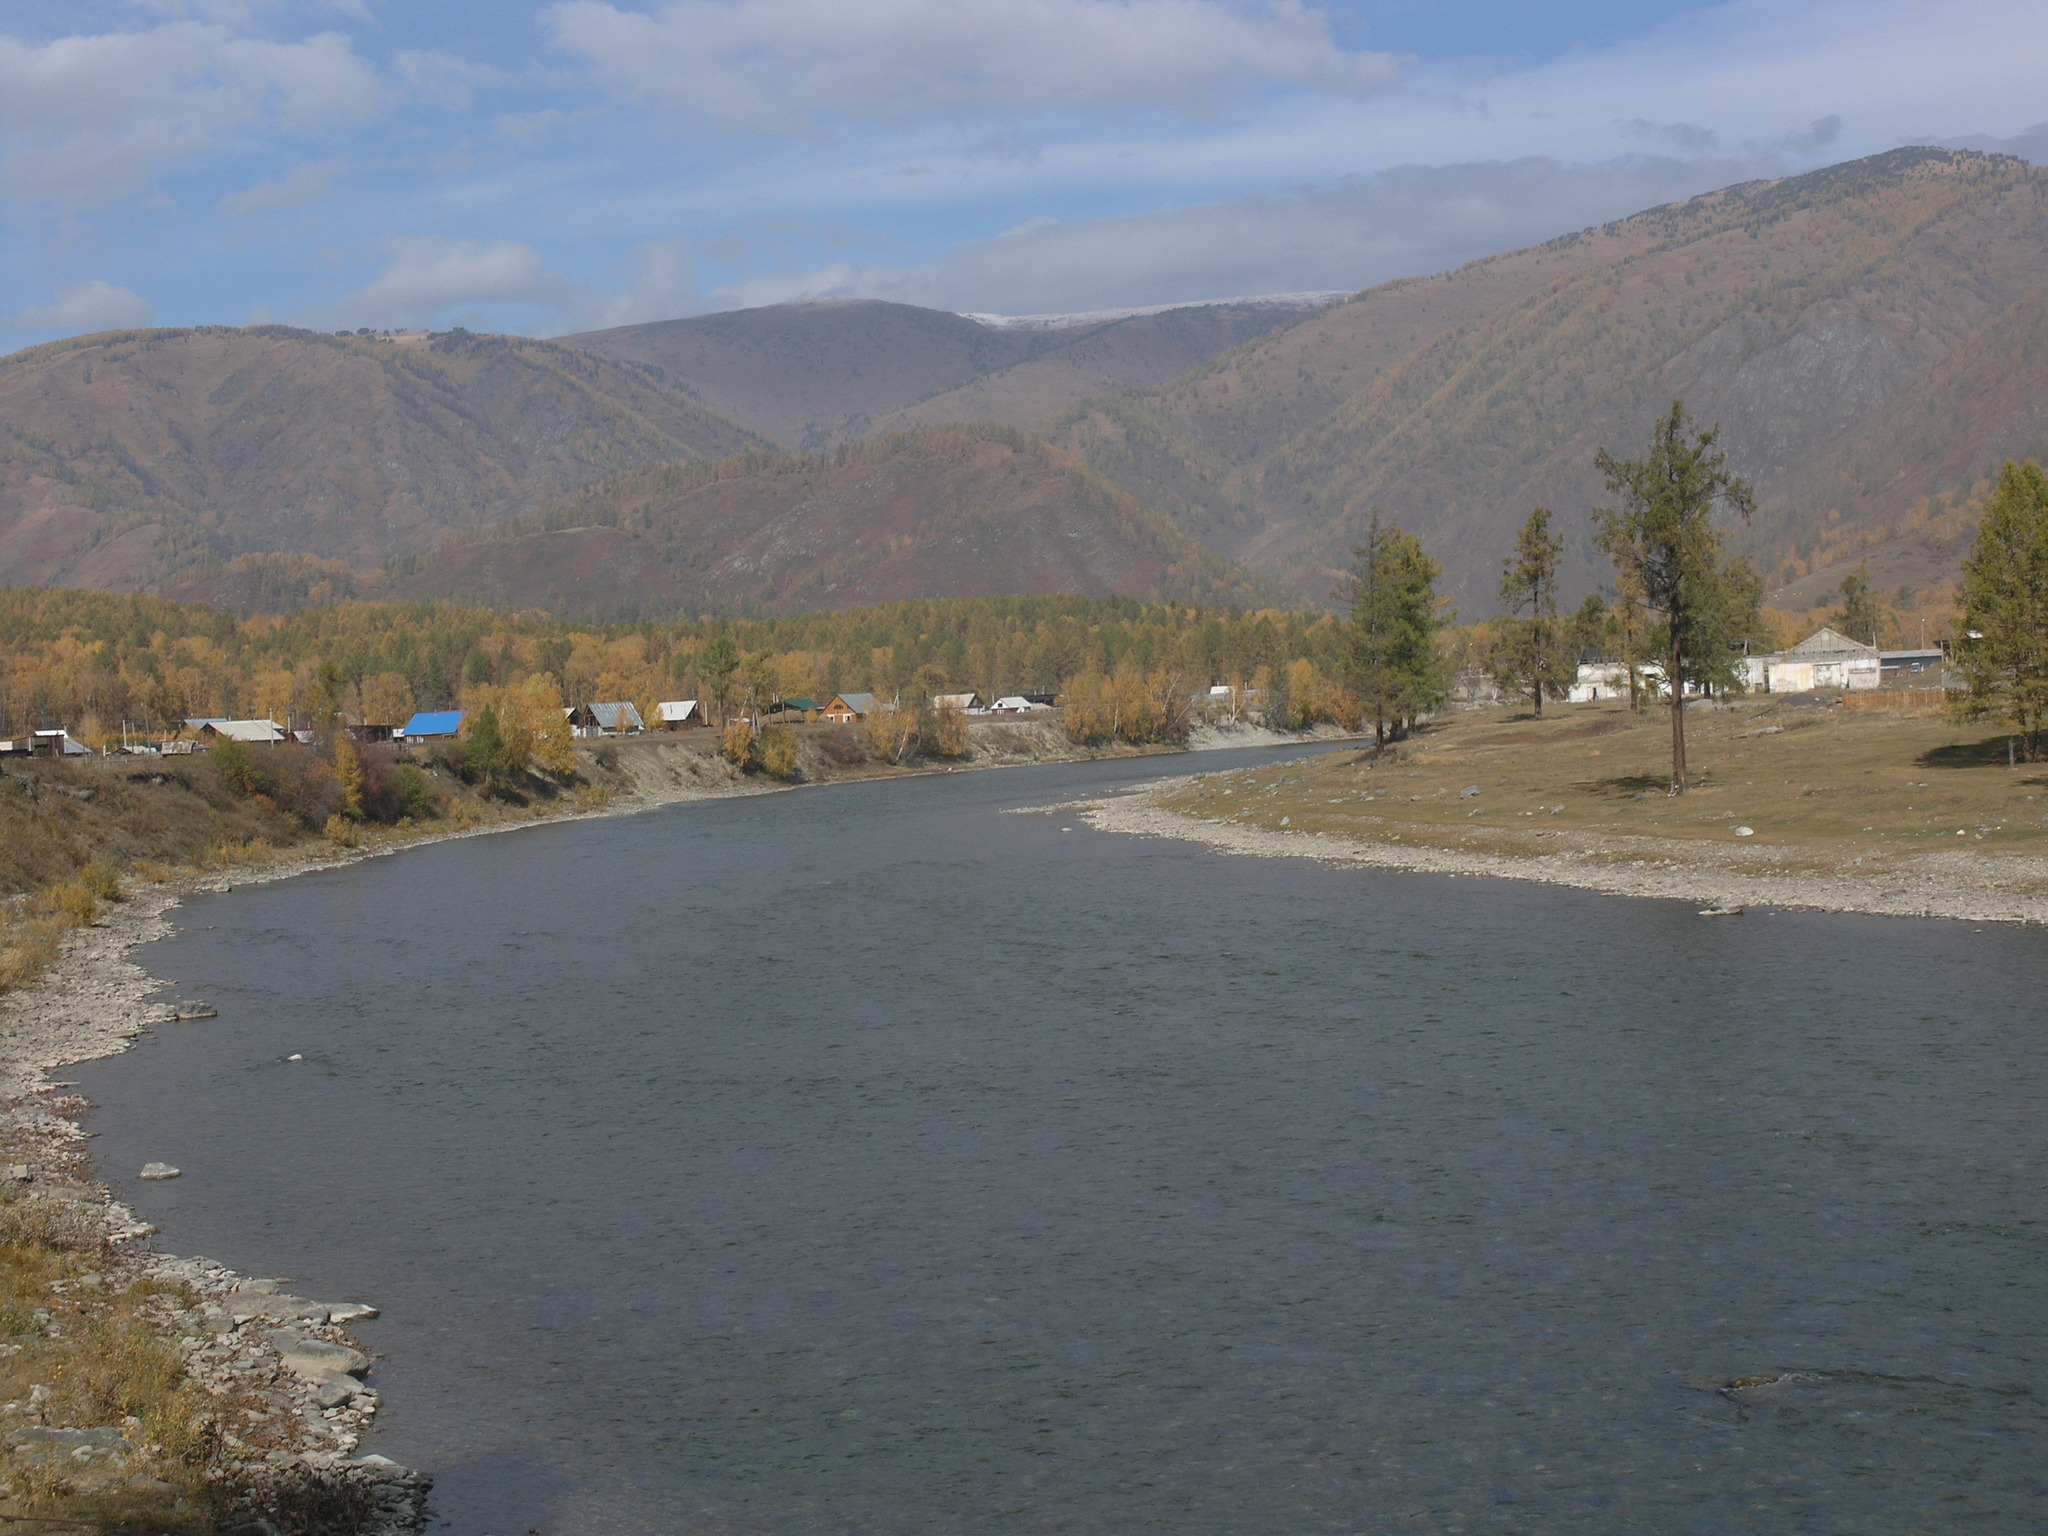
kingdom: Plantae
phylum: Tracheophyta
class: Pinopsida
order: Pinales
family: Pinaceae
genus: Larix
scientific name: Larix sibirica
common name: Siberian larch
